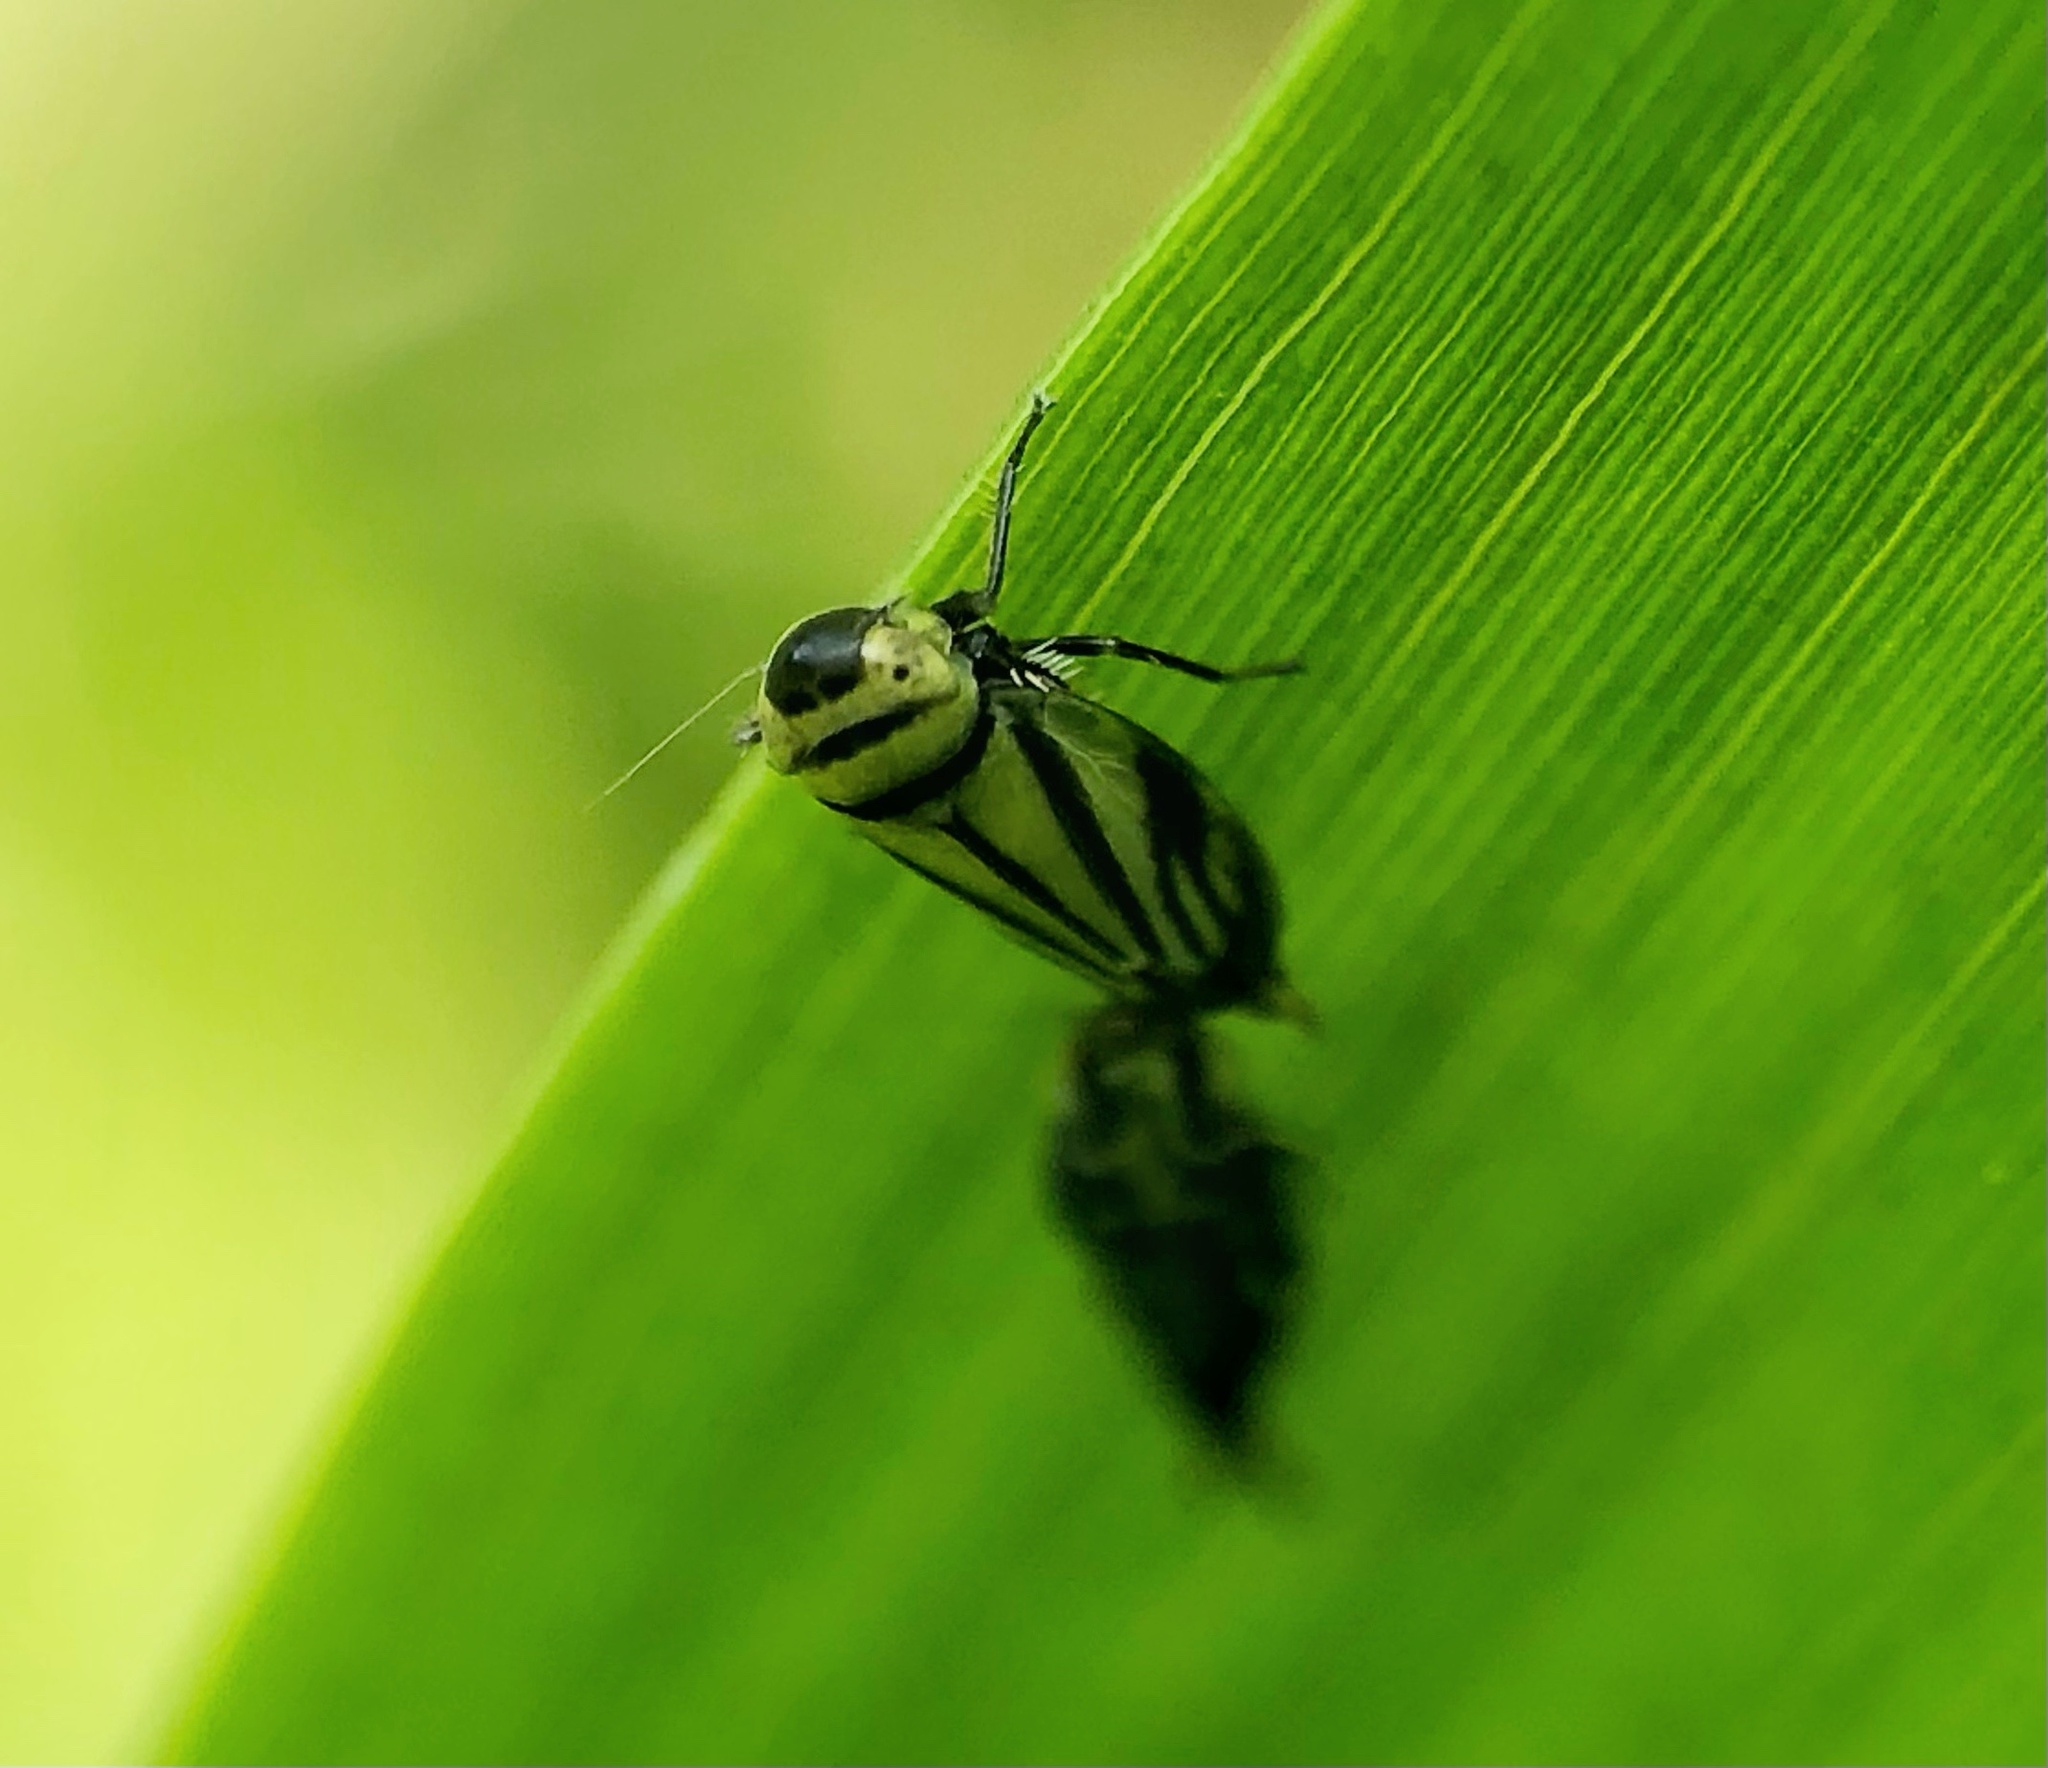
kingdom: Animalia
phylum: Arthropoda
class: Insecta
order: Hemiptera
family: Cicadellidae
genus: Stirellus
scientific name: Stirellus bicolor
